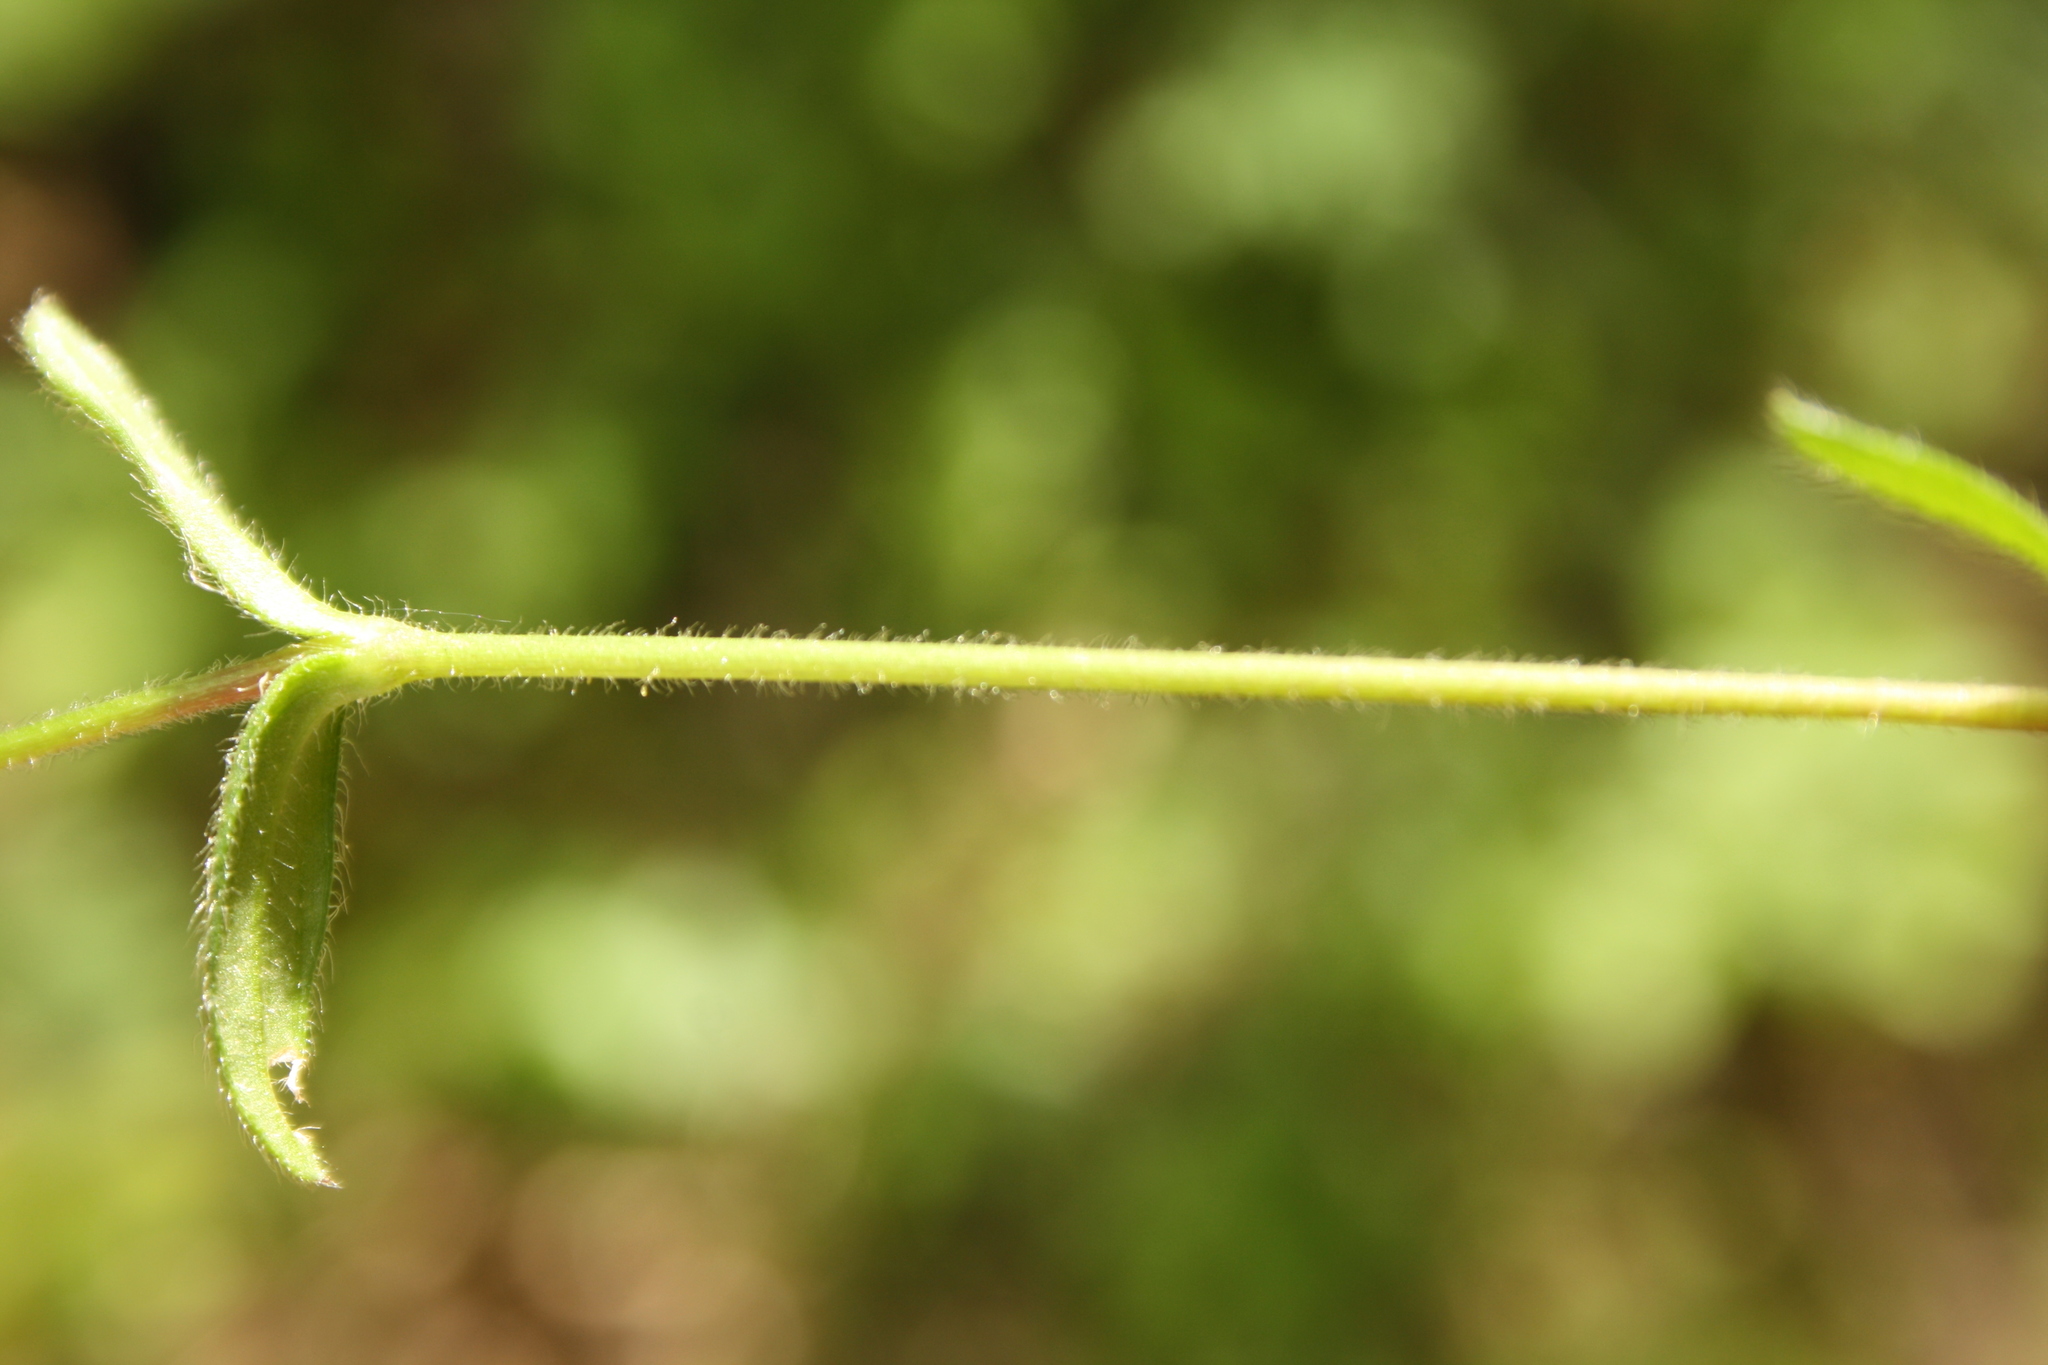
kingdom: Plantae
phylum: Tracheophyta
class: Magnoliopsida
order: Caryophyllales
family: Caryophyllaceae
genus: Cerastium
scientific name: Cerastium holosteoides
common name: Big chickweed
